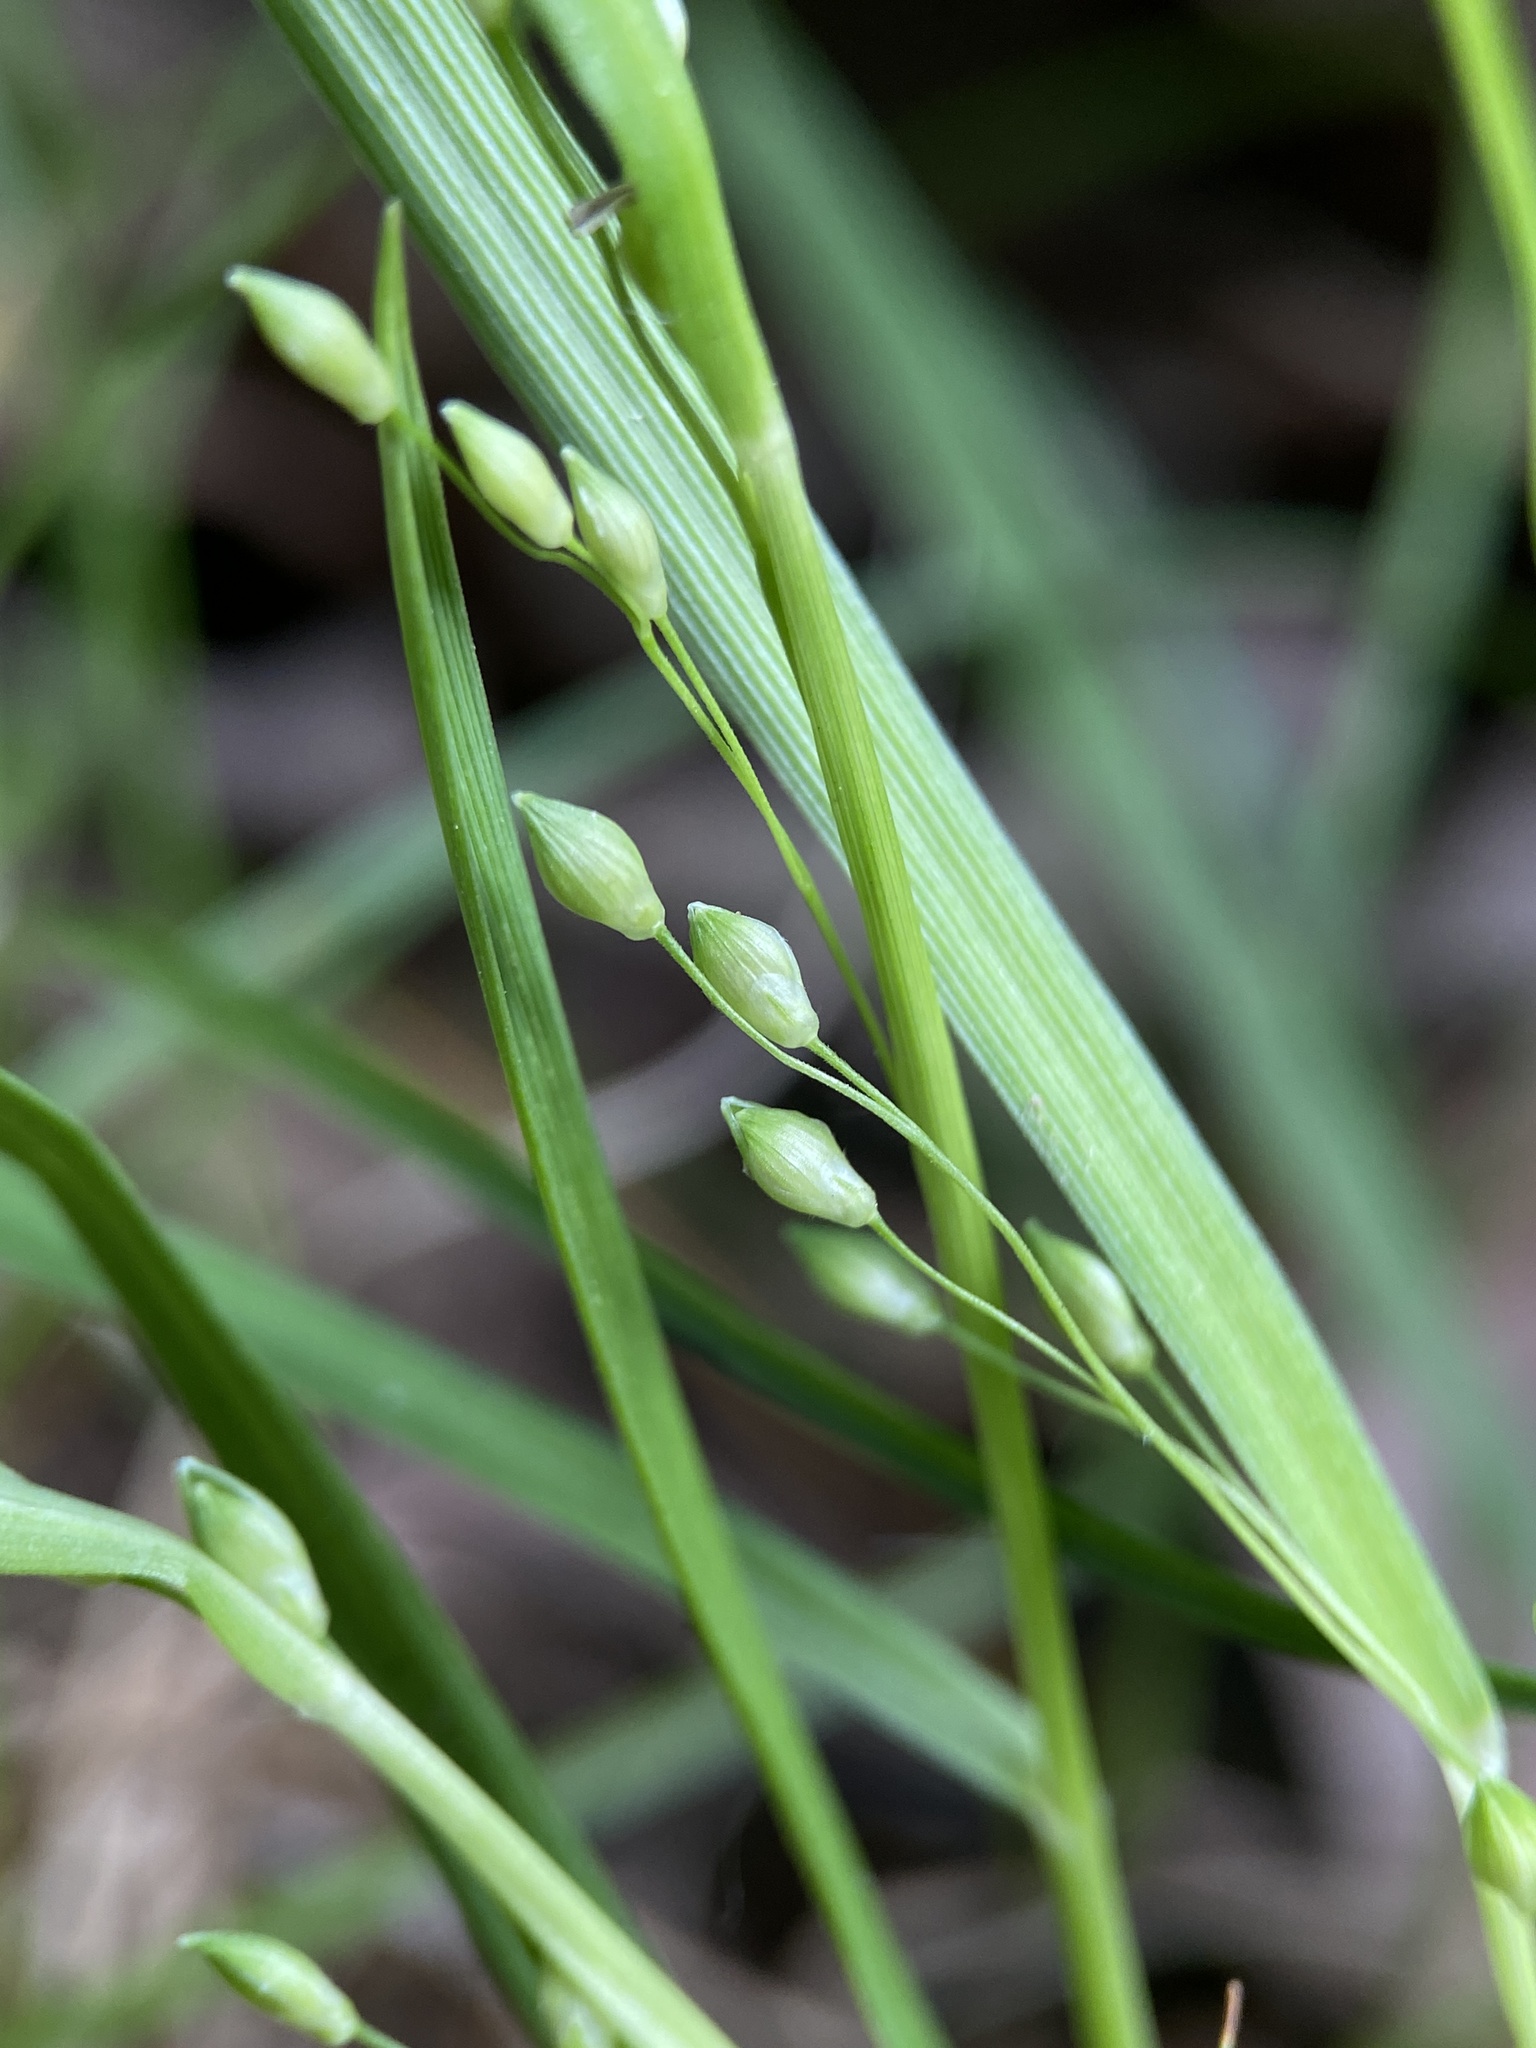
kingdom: Plantae
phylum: Tracheophyta
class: Liliopsida
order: Poales
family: Poaceae
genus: Dichanthelium
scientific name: Dichanthelium depauperatum
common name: Depauperate panicgrass
